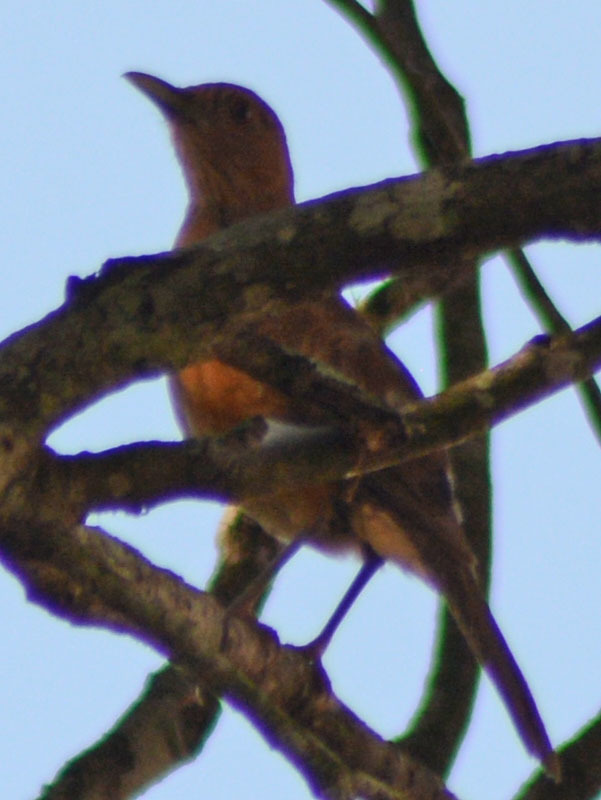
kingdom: Animalia
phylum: Chordata
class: Aves
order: Passeriformes
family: Turdidae
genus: Turdus
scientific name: Turdus grayi
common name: Clay-colored thrush
